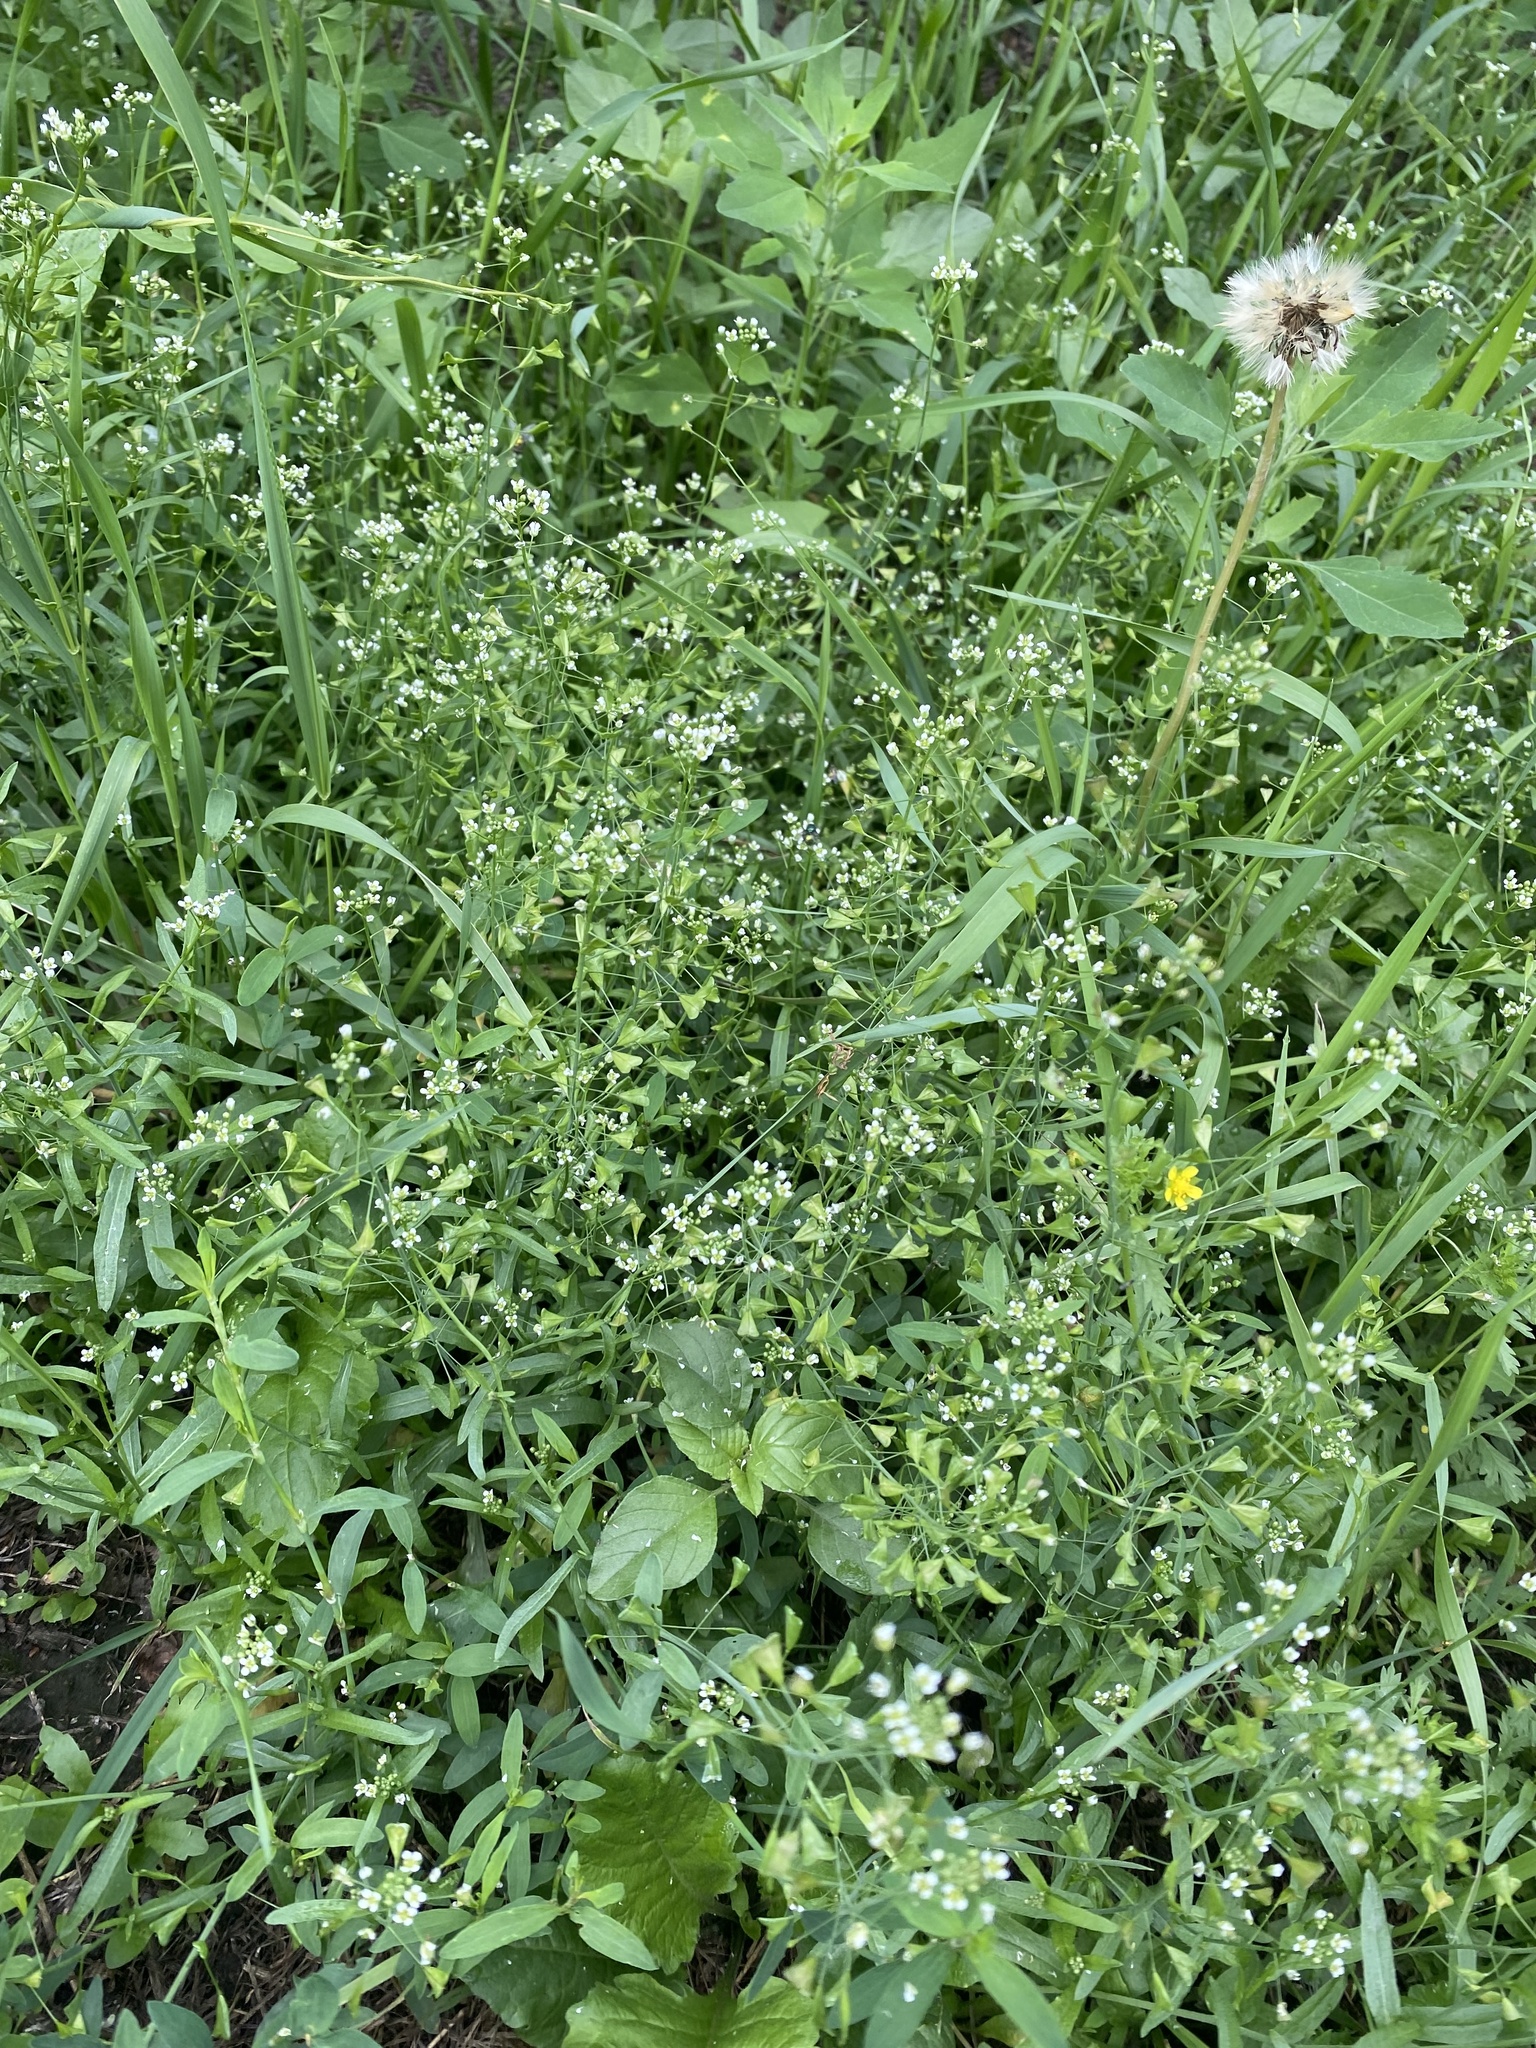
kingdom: Plantae
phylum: Tracheophyta
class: Magnoliopsida
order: Brassicales
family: Brassicaceae
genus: Capsella
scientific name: Capsella bursa-pastoris
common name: Shepherd's purse
